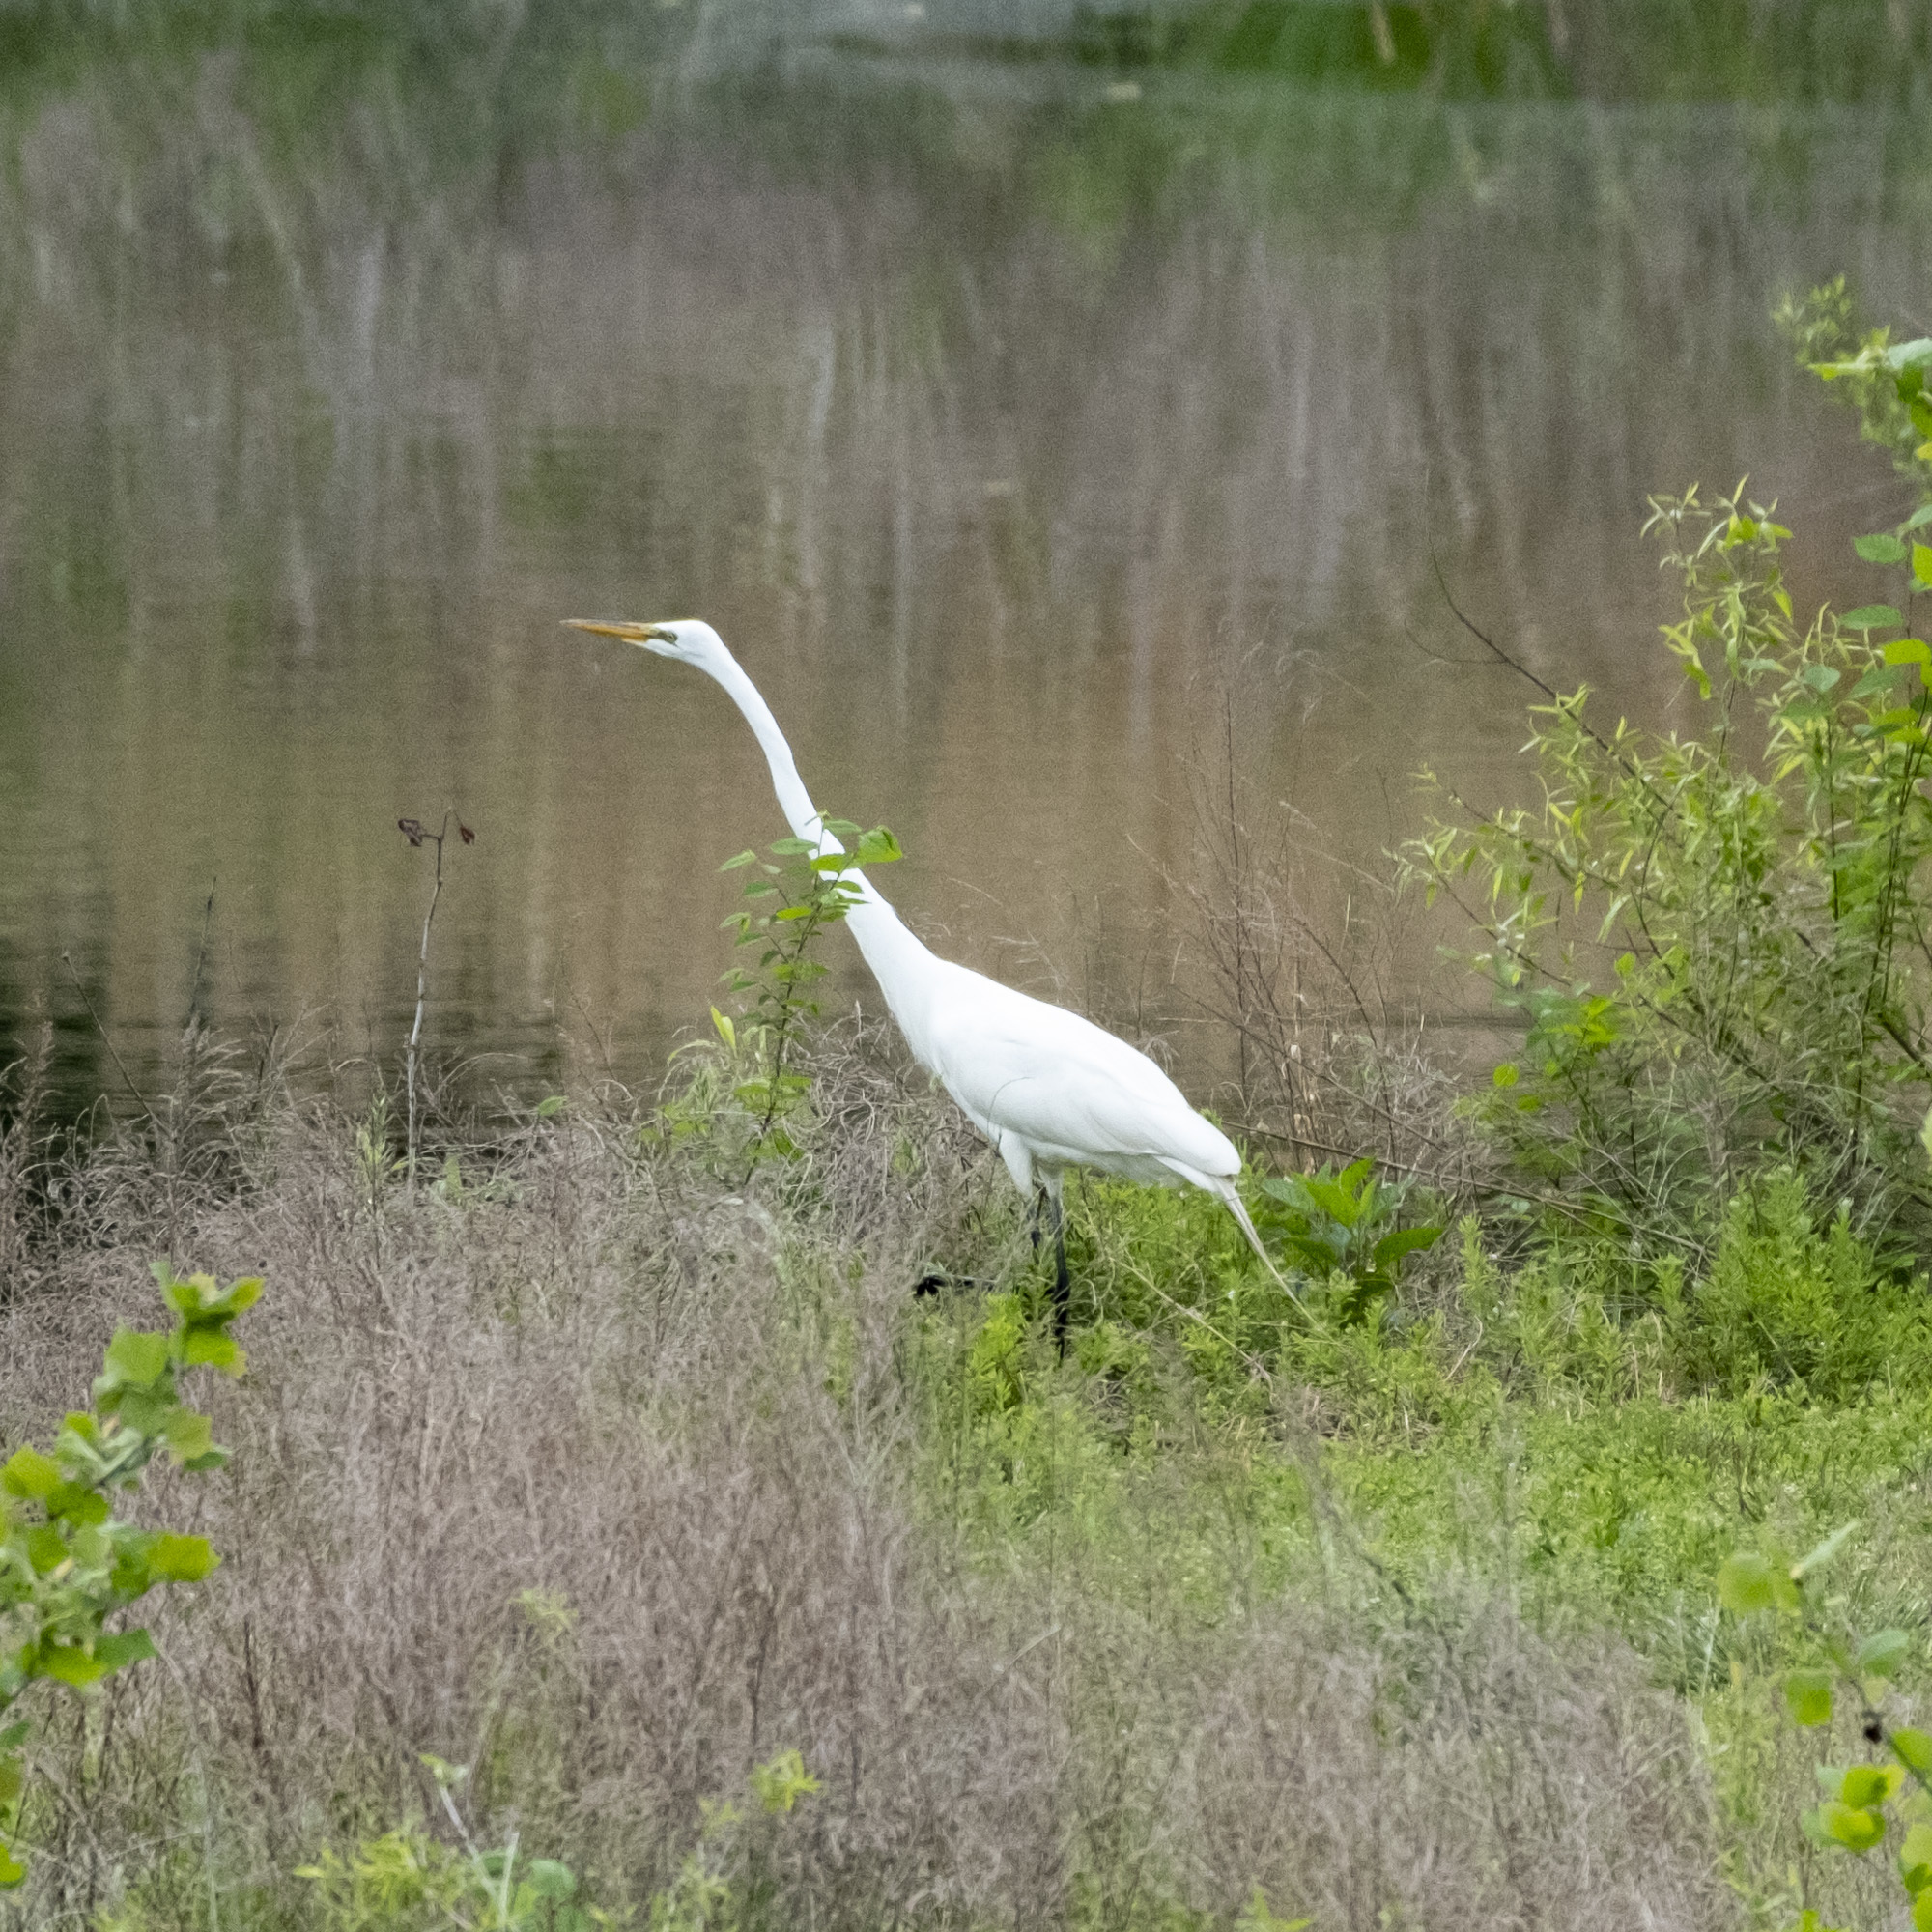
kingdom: Animalia
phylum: Chordata
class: Aves
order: Pelecaniformes
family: Ardeidae
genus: Ardea
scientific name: Ardea alba
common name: Great egret
